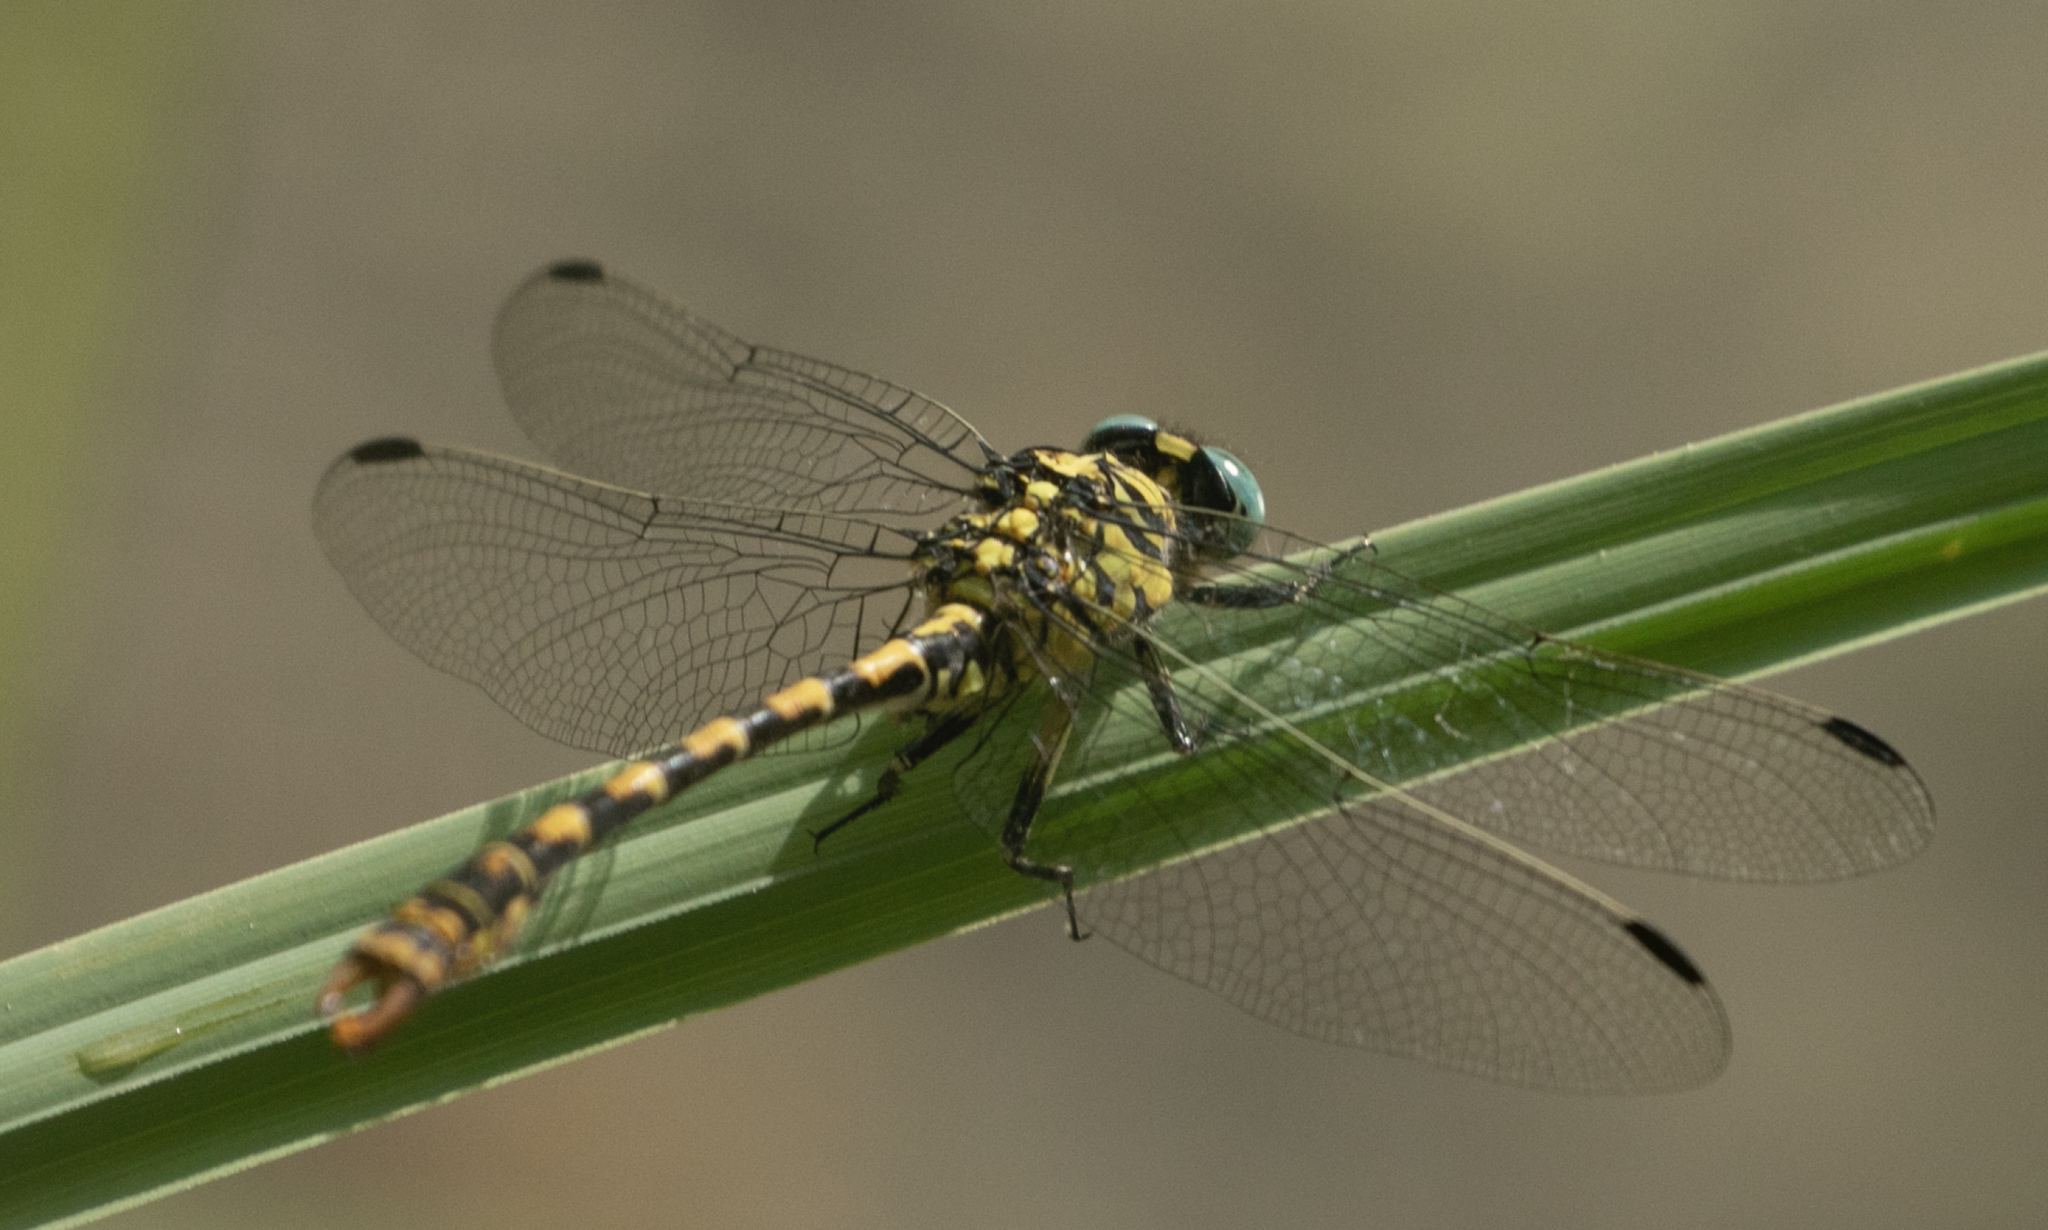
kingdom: Animalia
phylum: Arthropoda
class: Insecta
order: Odonata
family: Gomphidae
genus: Onychogomphus
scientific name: Onychogomphus forcipatus
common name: Small pincertail
